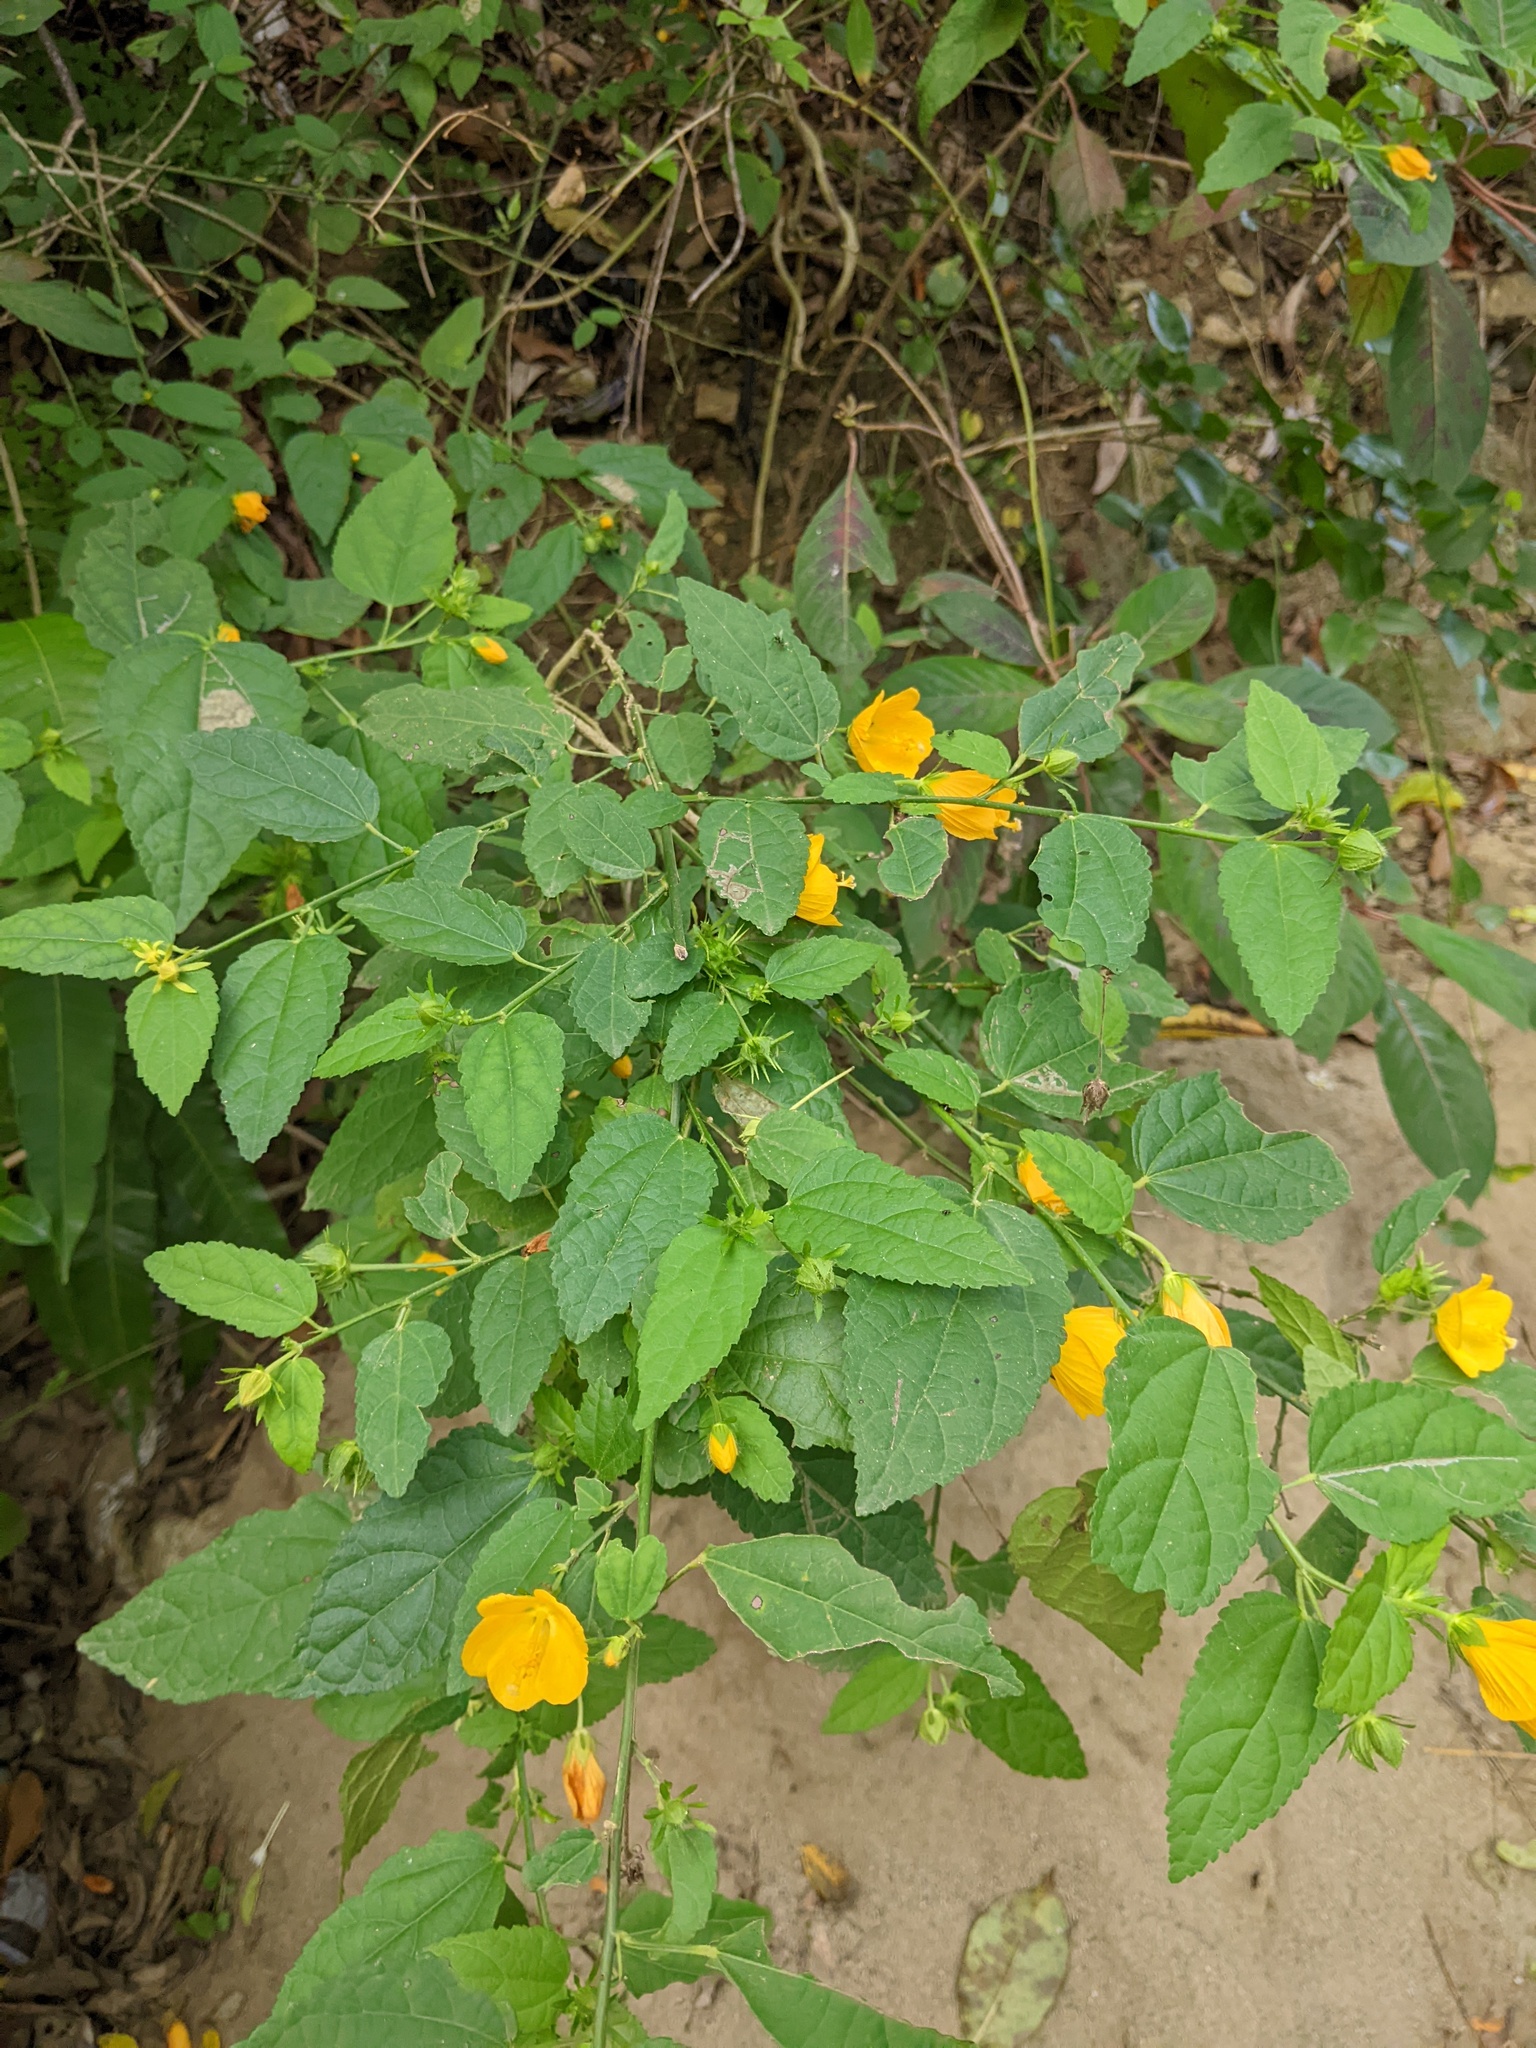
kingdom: Plantae
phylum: Tracheophyta
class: Magnoliopsida
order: Malvales
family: Malvaceae
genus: Pavonia
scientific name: Pavonia spinifex
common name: Ginger bush
